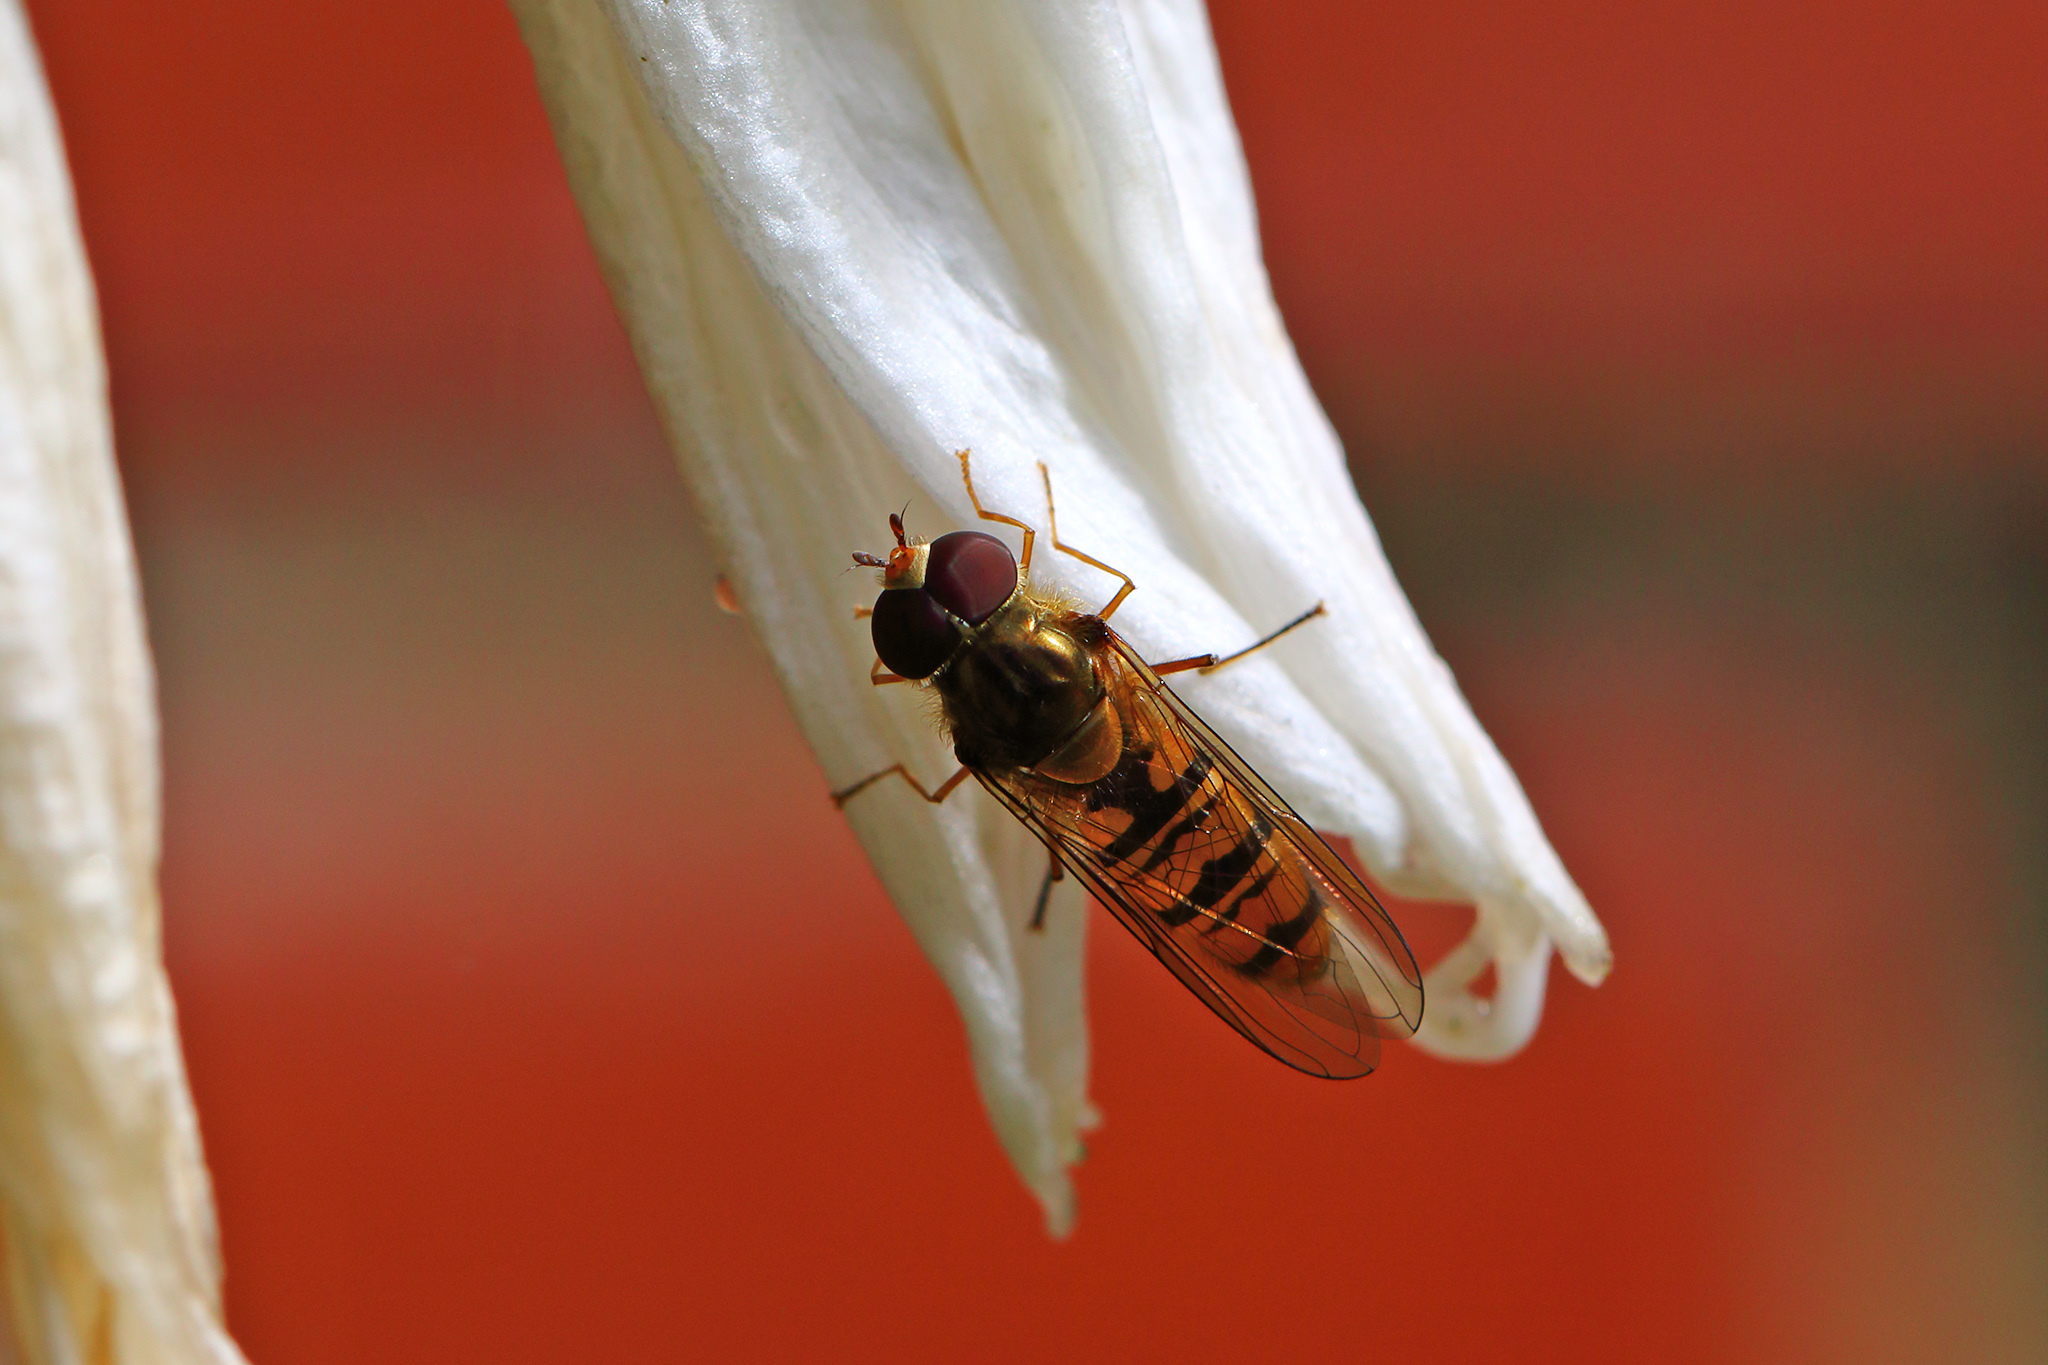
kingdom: Animalia
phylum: Arthropoda
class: Insecta
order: Diptera
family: Syrphidae
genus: Episyrphus
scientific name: Episyrphus balteatus
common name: Marmalade hoverfly
